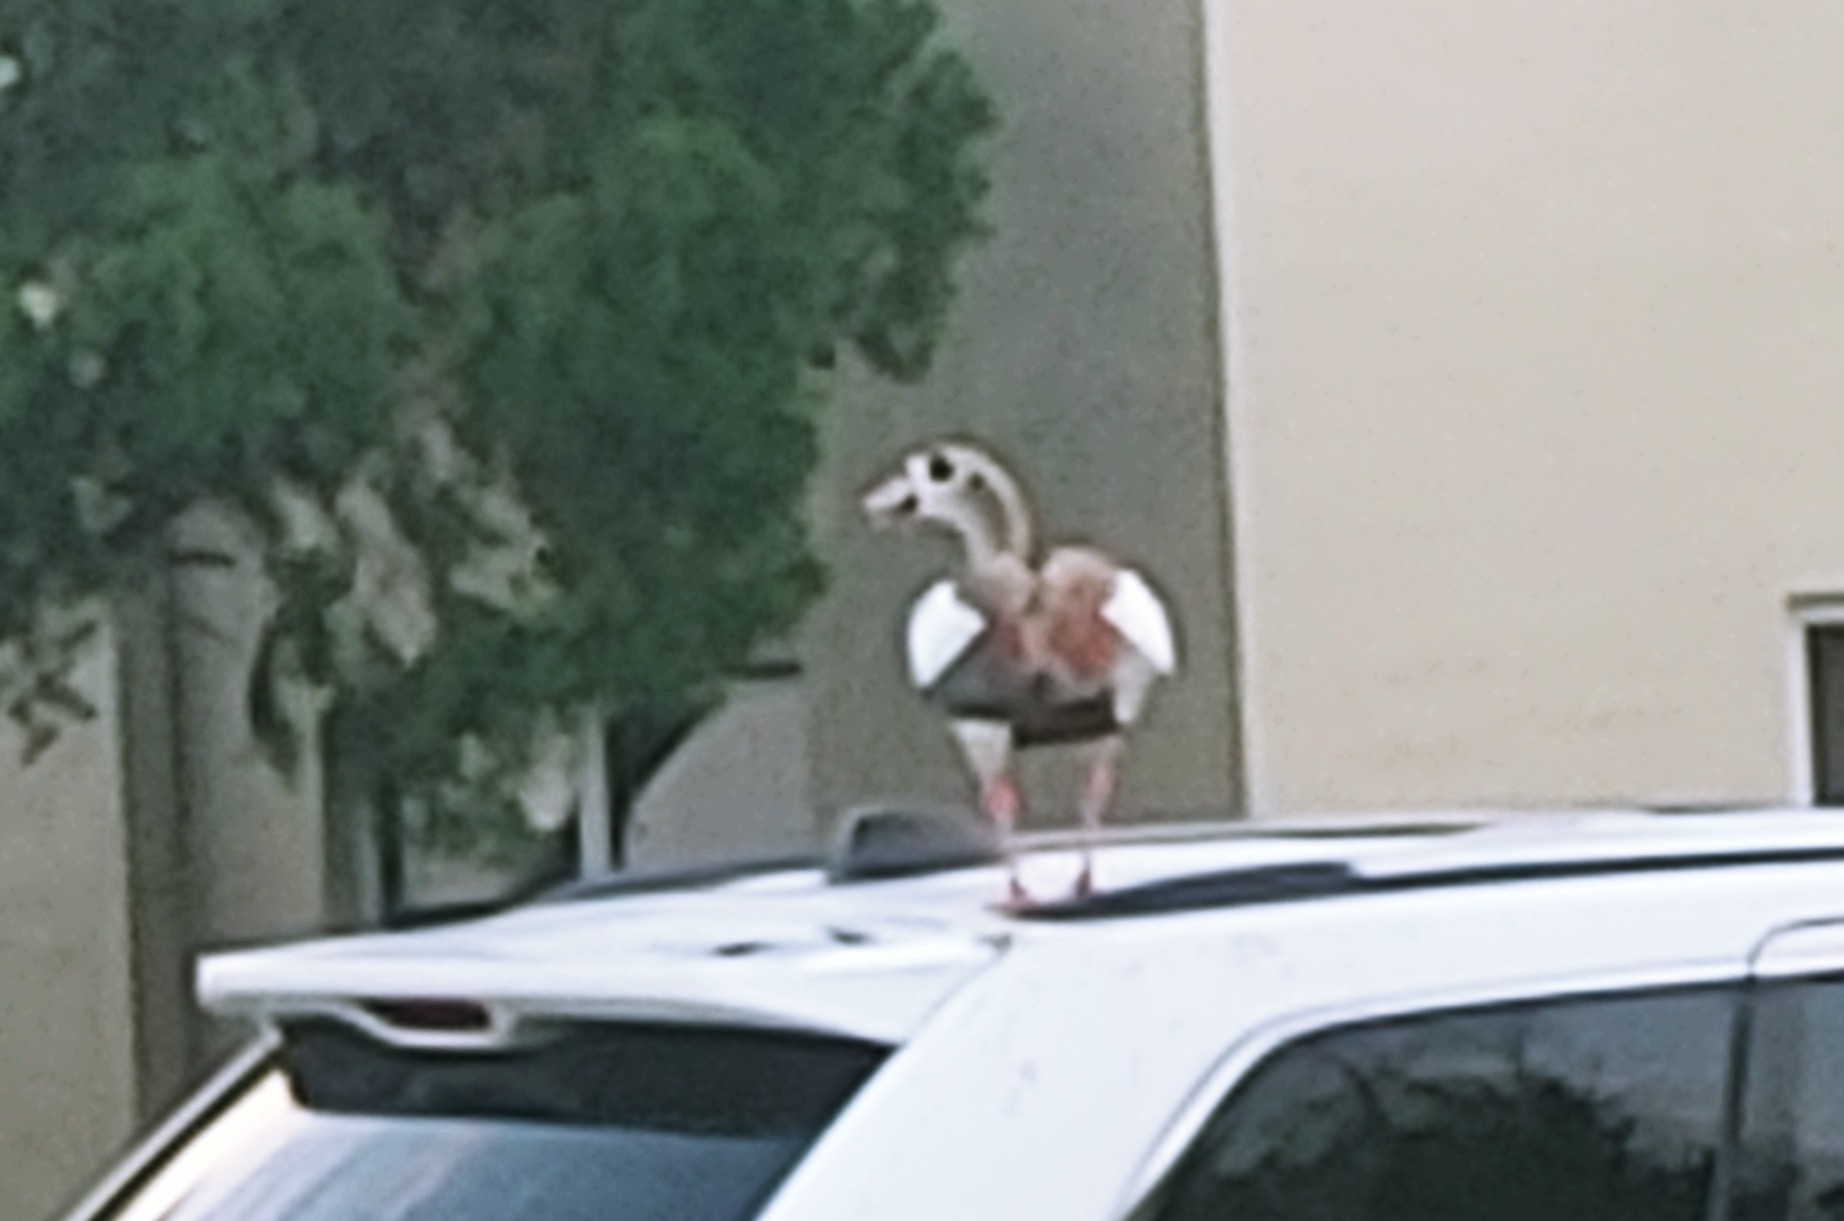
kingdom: Animalia
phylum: Chordata
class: Aves
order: Anseriformes
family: Anatidae
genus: Alopochen
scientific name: Alopochen aegyptiaca
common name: Egyptian goose
